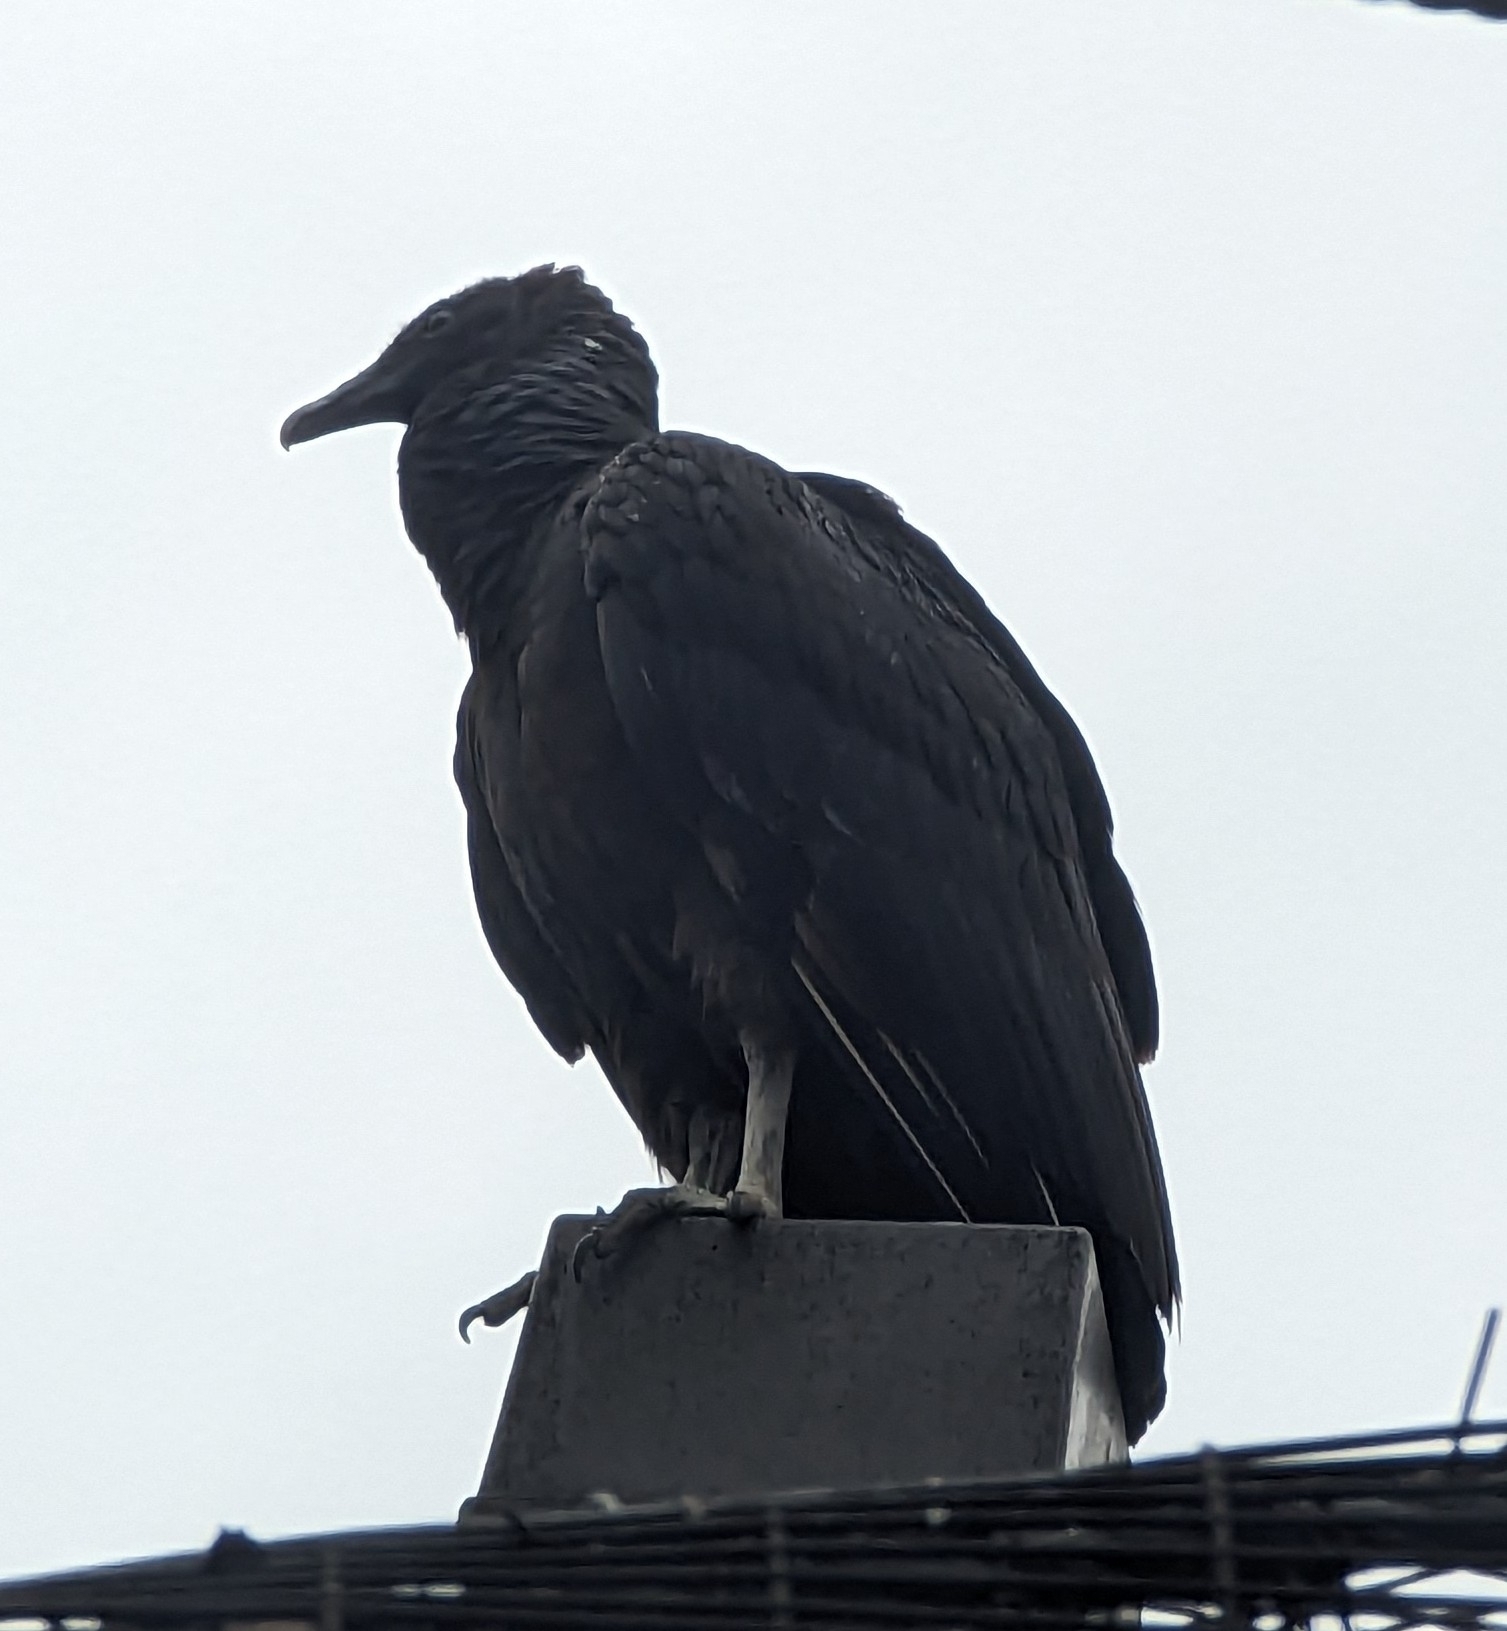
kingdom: Animalia
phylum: Chordata
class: Aves
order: Accipitriformes
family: Cathartidae
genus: Coragyps
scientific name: Coragyps atratus
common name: Black vulture
